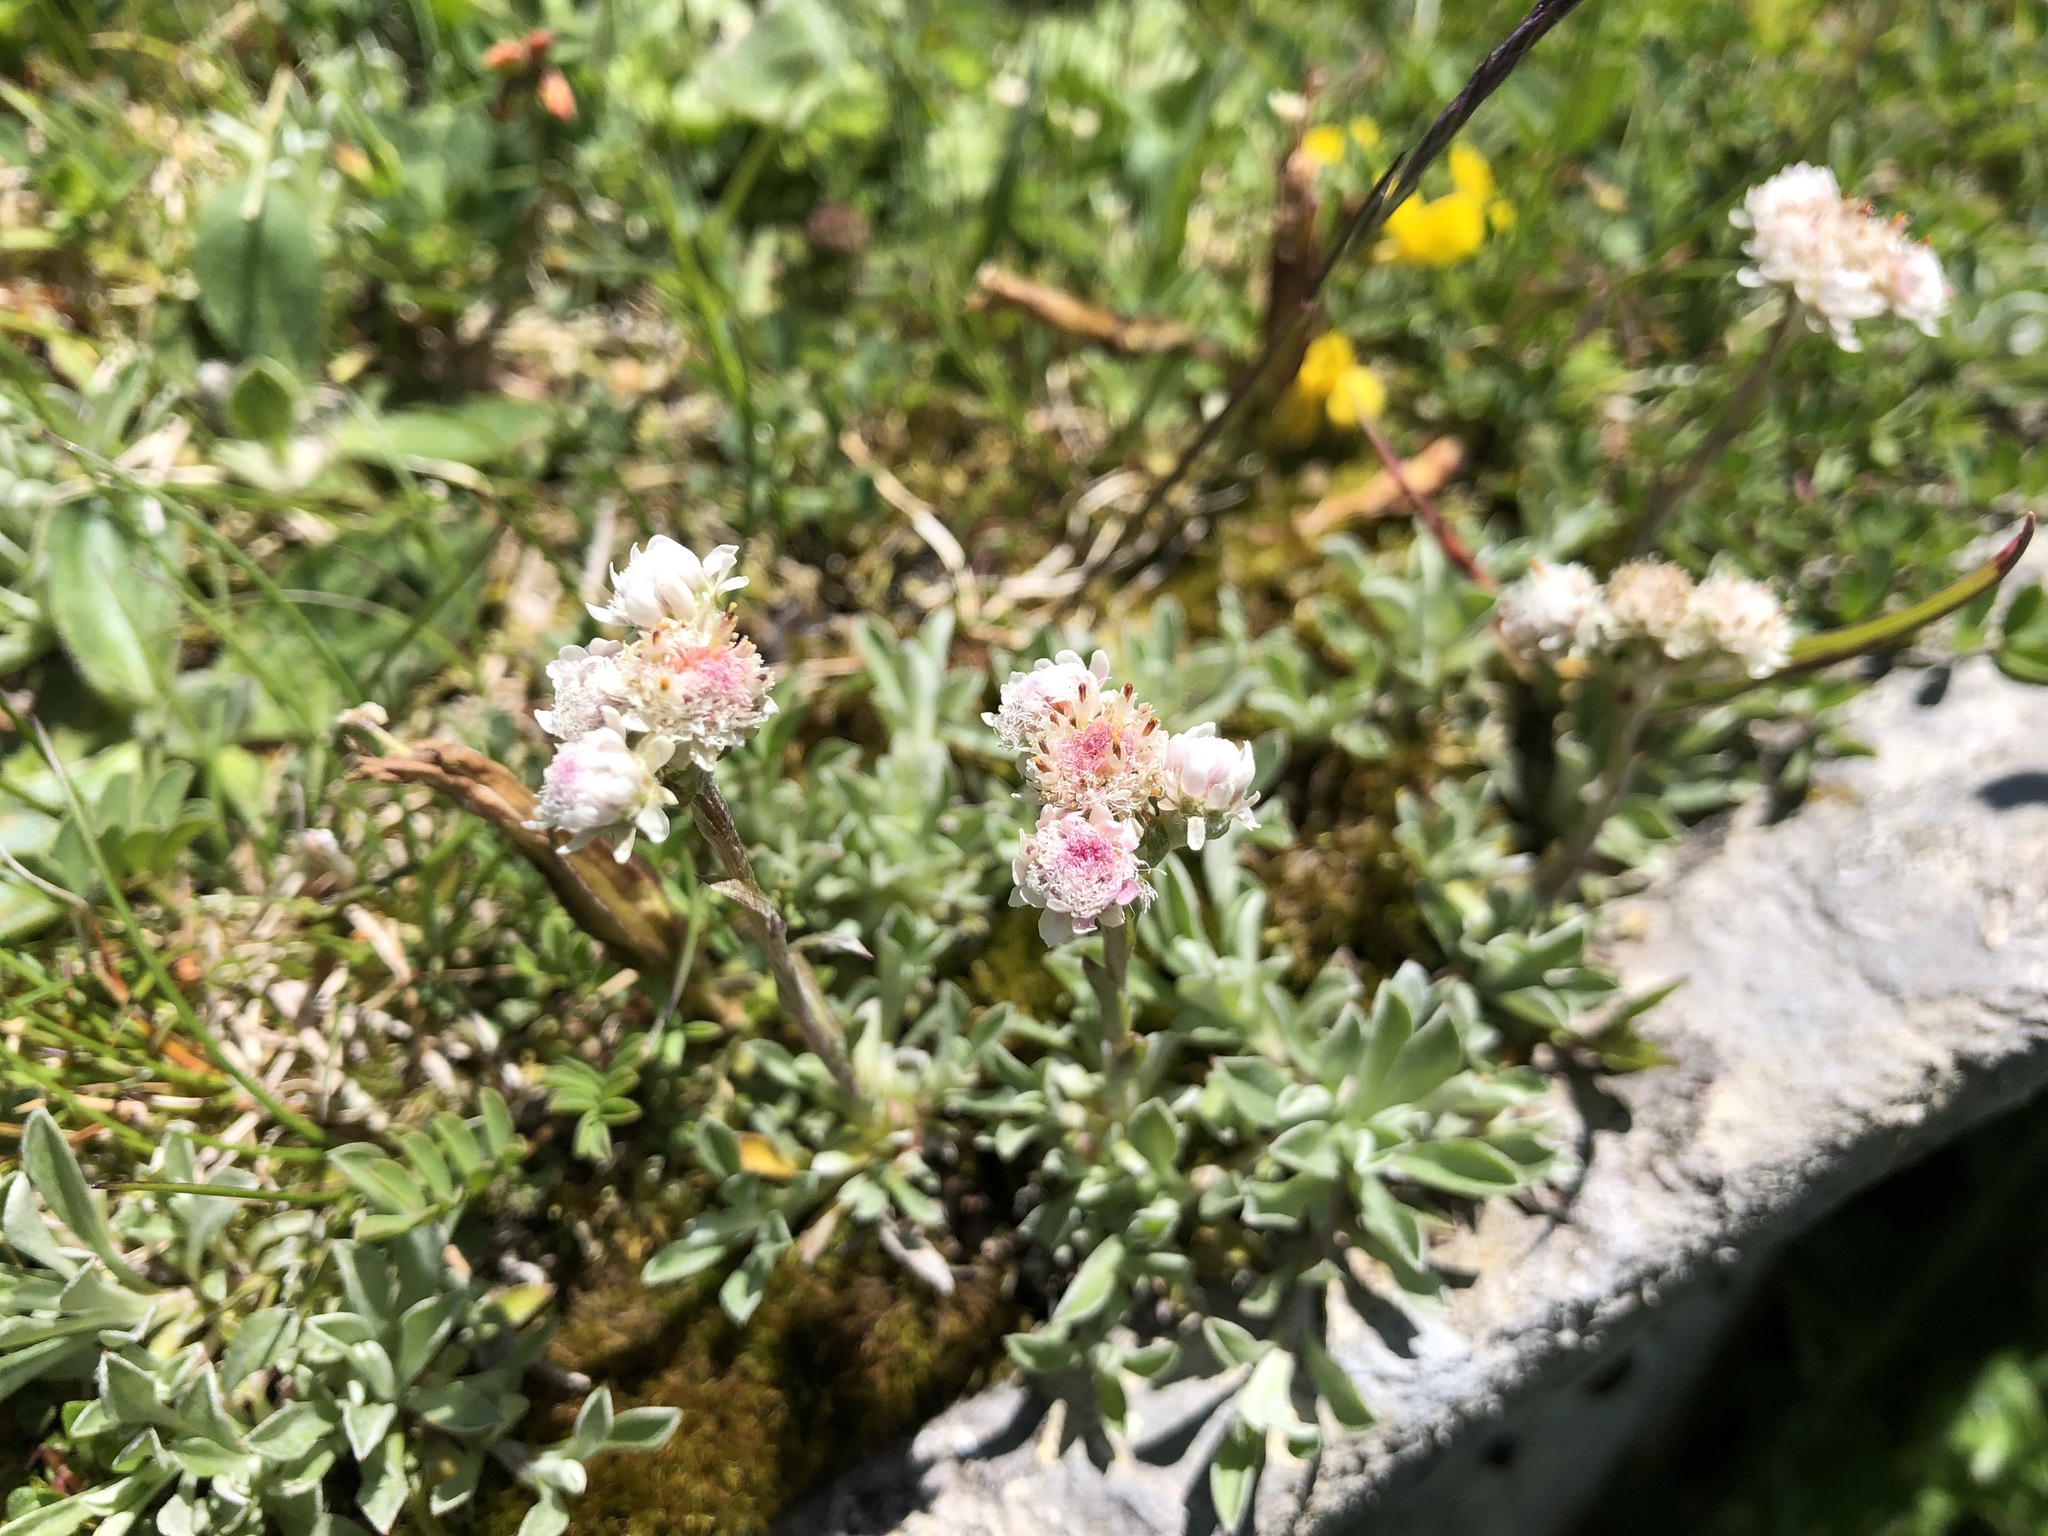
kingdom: Plantae
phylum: Tracheophyta
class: Magnoliopsida
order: Asterales
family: Asteraceae
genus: Antennaria
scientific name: Antennaria dioica
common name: Mountain everlasting
